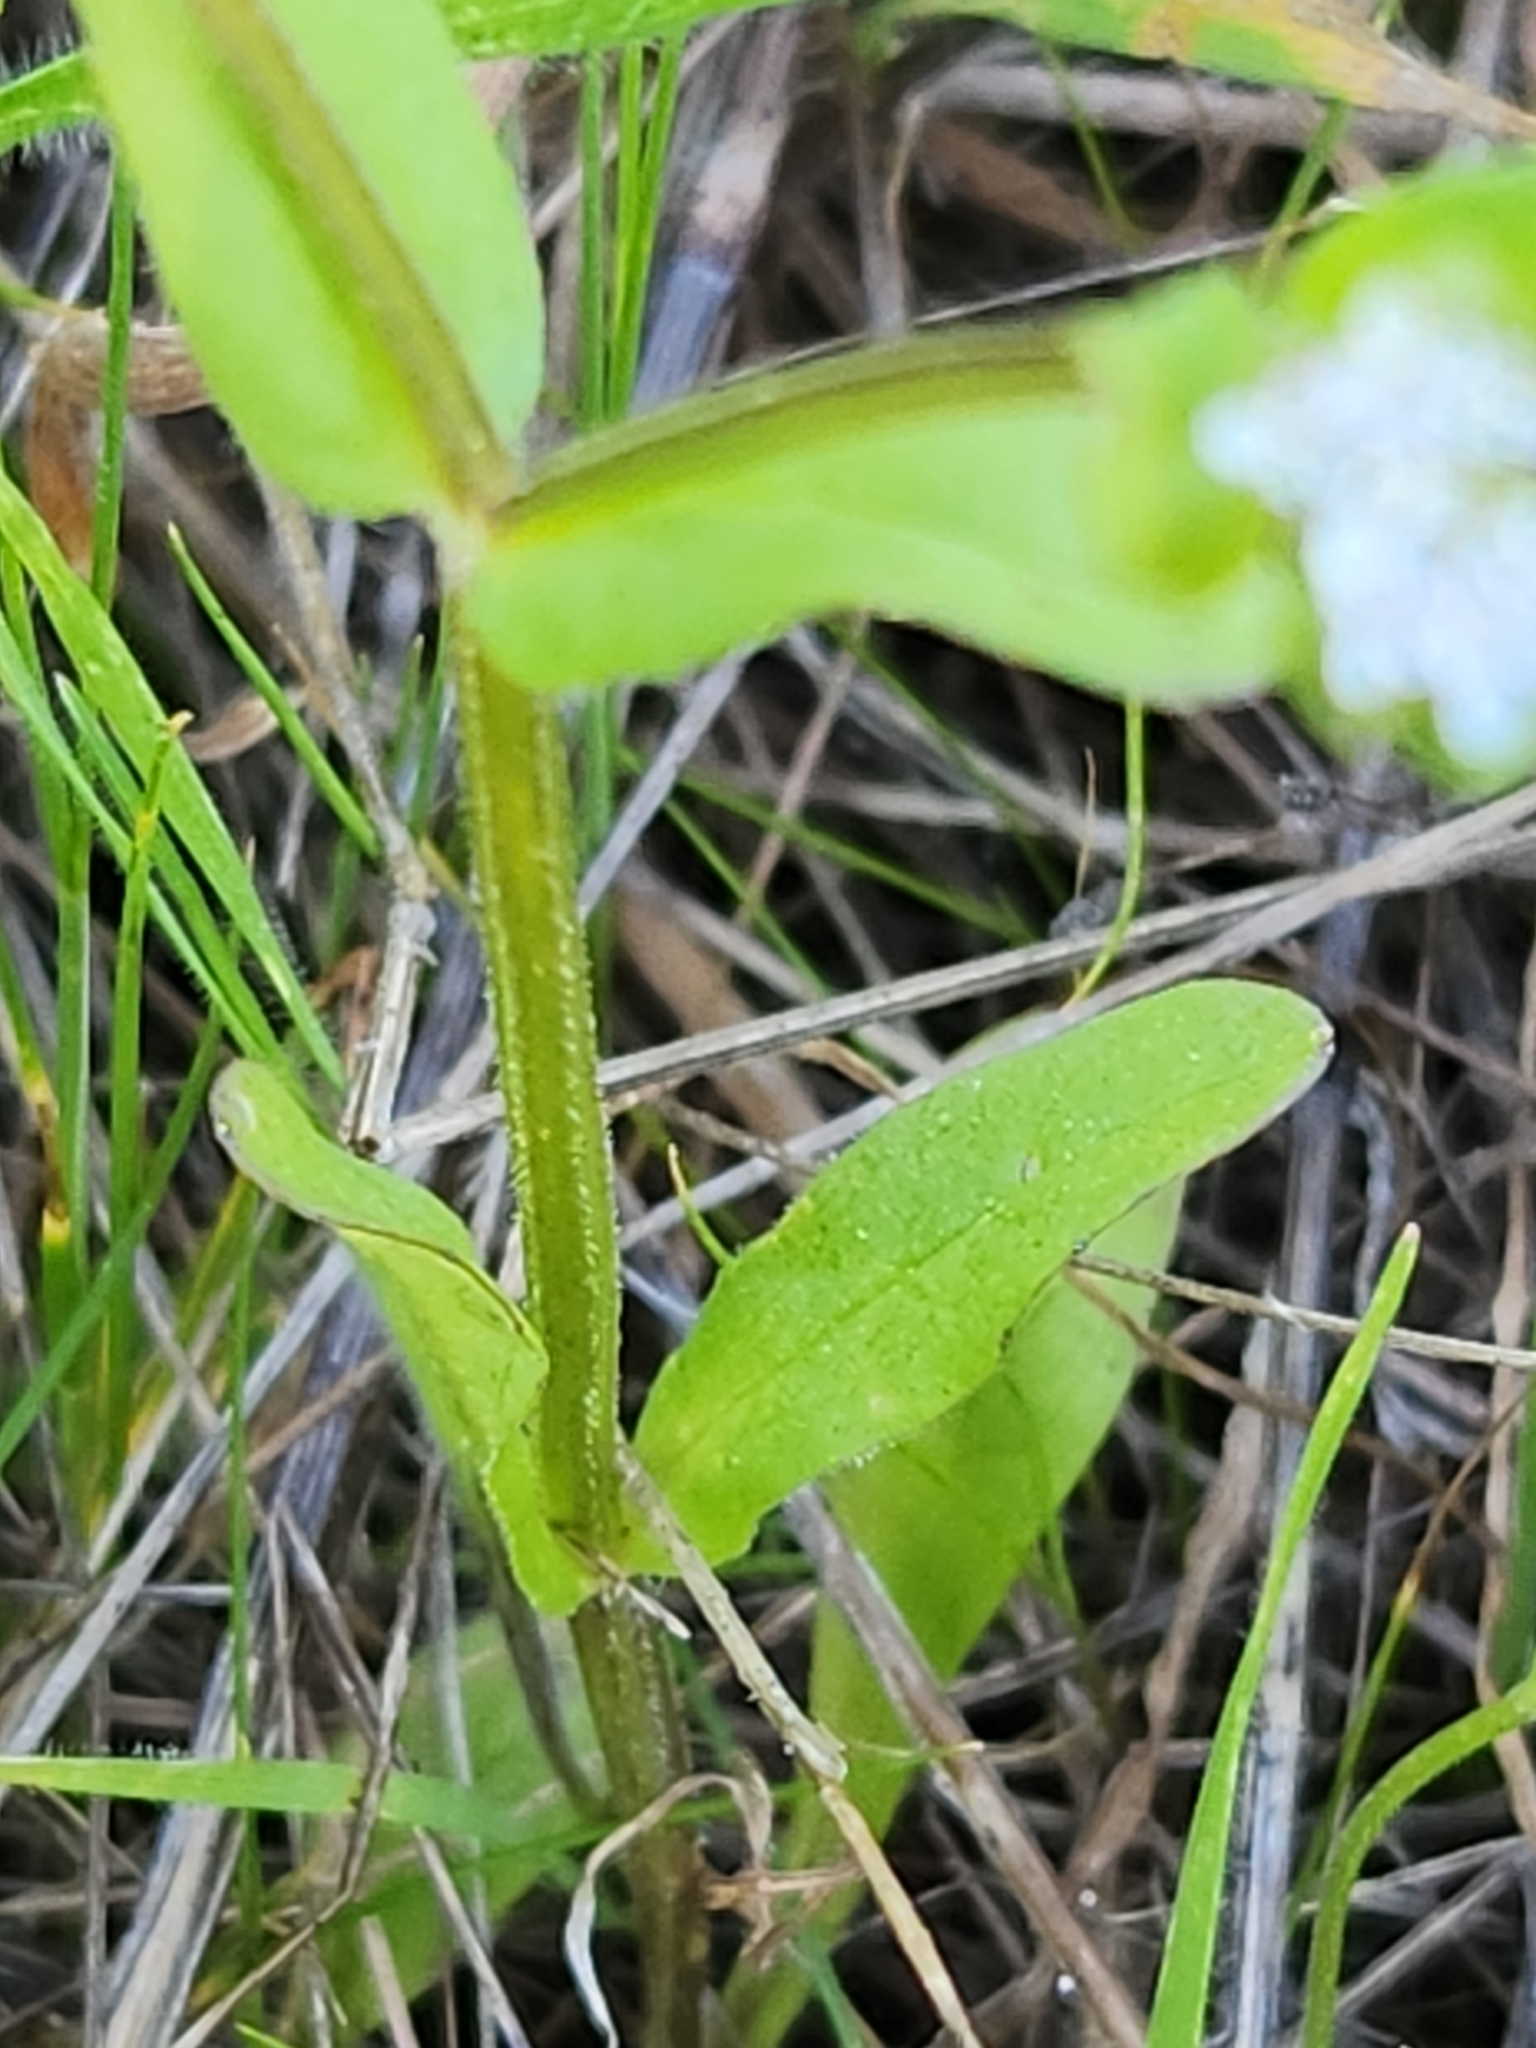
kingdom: Plantae
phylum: Tracheophyta
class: Magnoliopsida
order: Dipsacales
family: Caprifoliaceae
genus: Valerianella
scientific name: Valerianella locusta
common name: Common cornsalad
